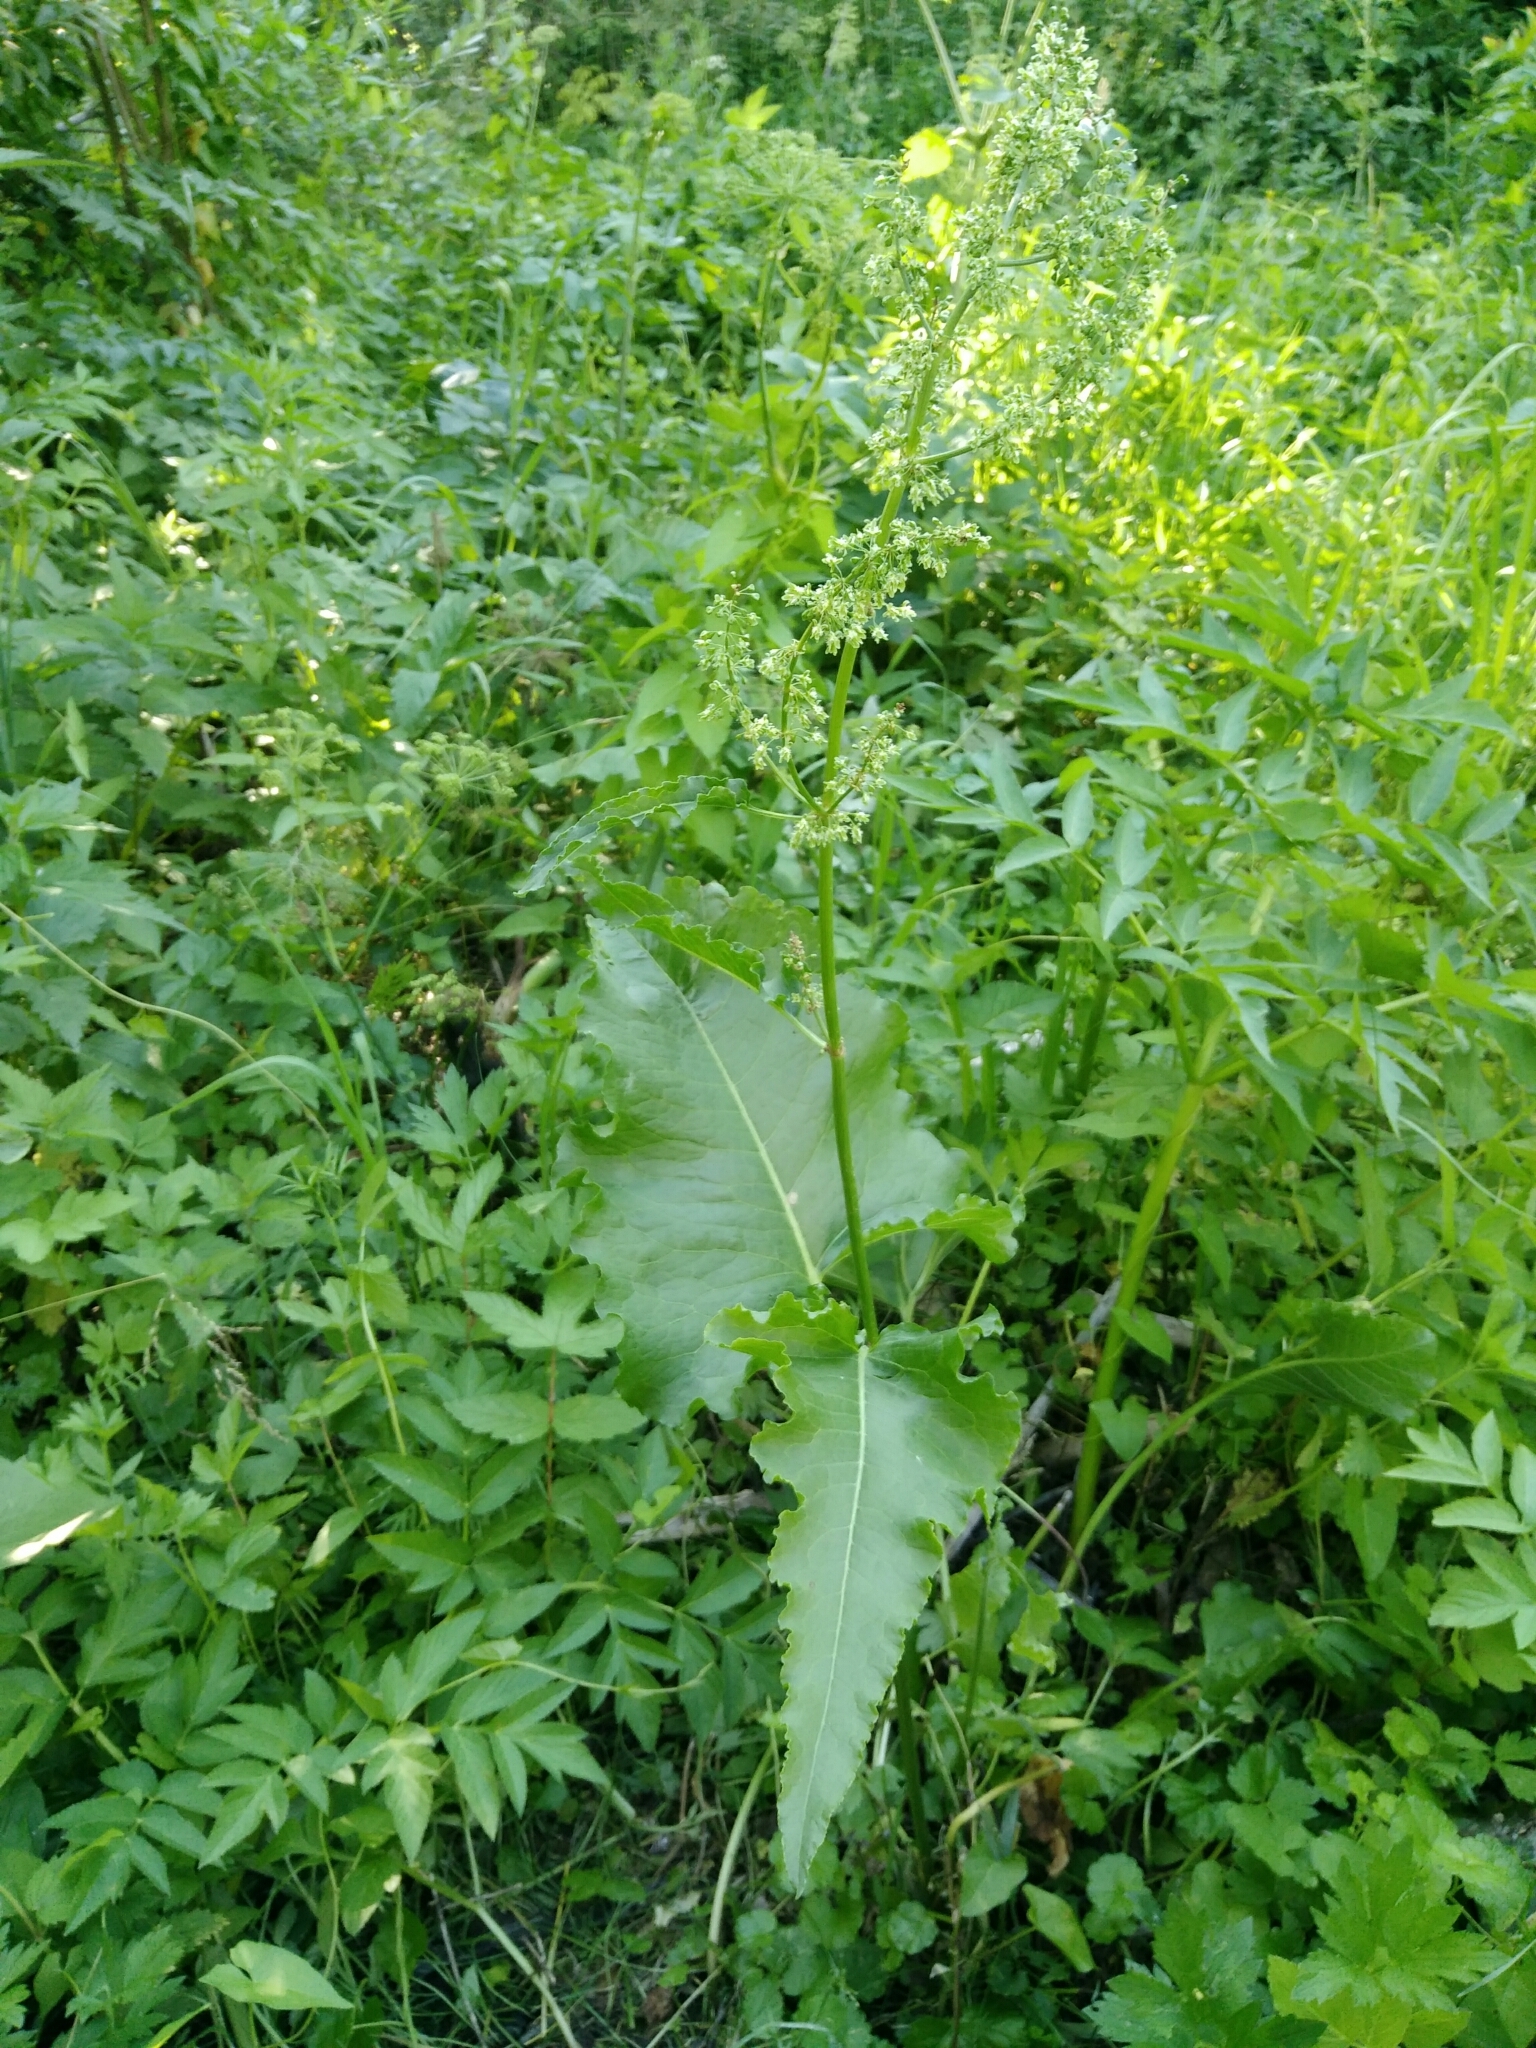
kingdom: Plantae
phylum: Tracheophyta
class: Magnoliopsida
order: Caryophyllales
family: Polygonaceae
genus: Rumex
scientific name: Rumex confertus
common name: Russian dock
